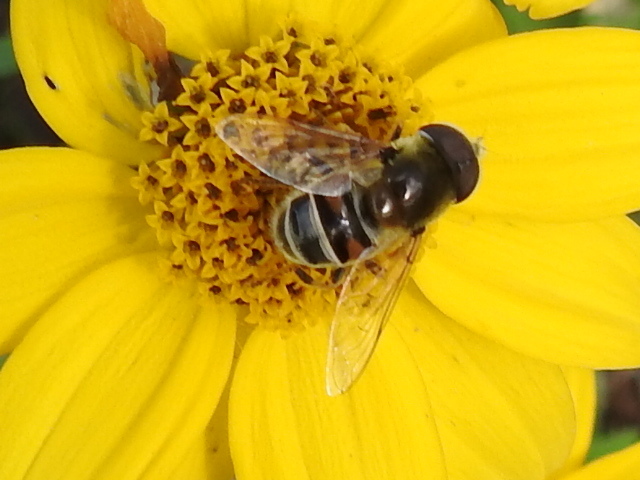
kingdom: Animalia
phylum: Arthropoda
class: Insecta
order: Diptera
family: Syrphidae
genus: Eristalis
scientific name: Eristalis stipator
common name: Yellow-shouldered drone fly
